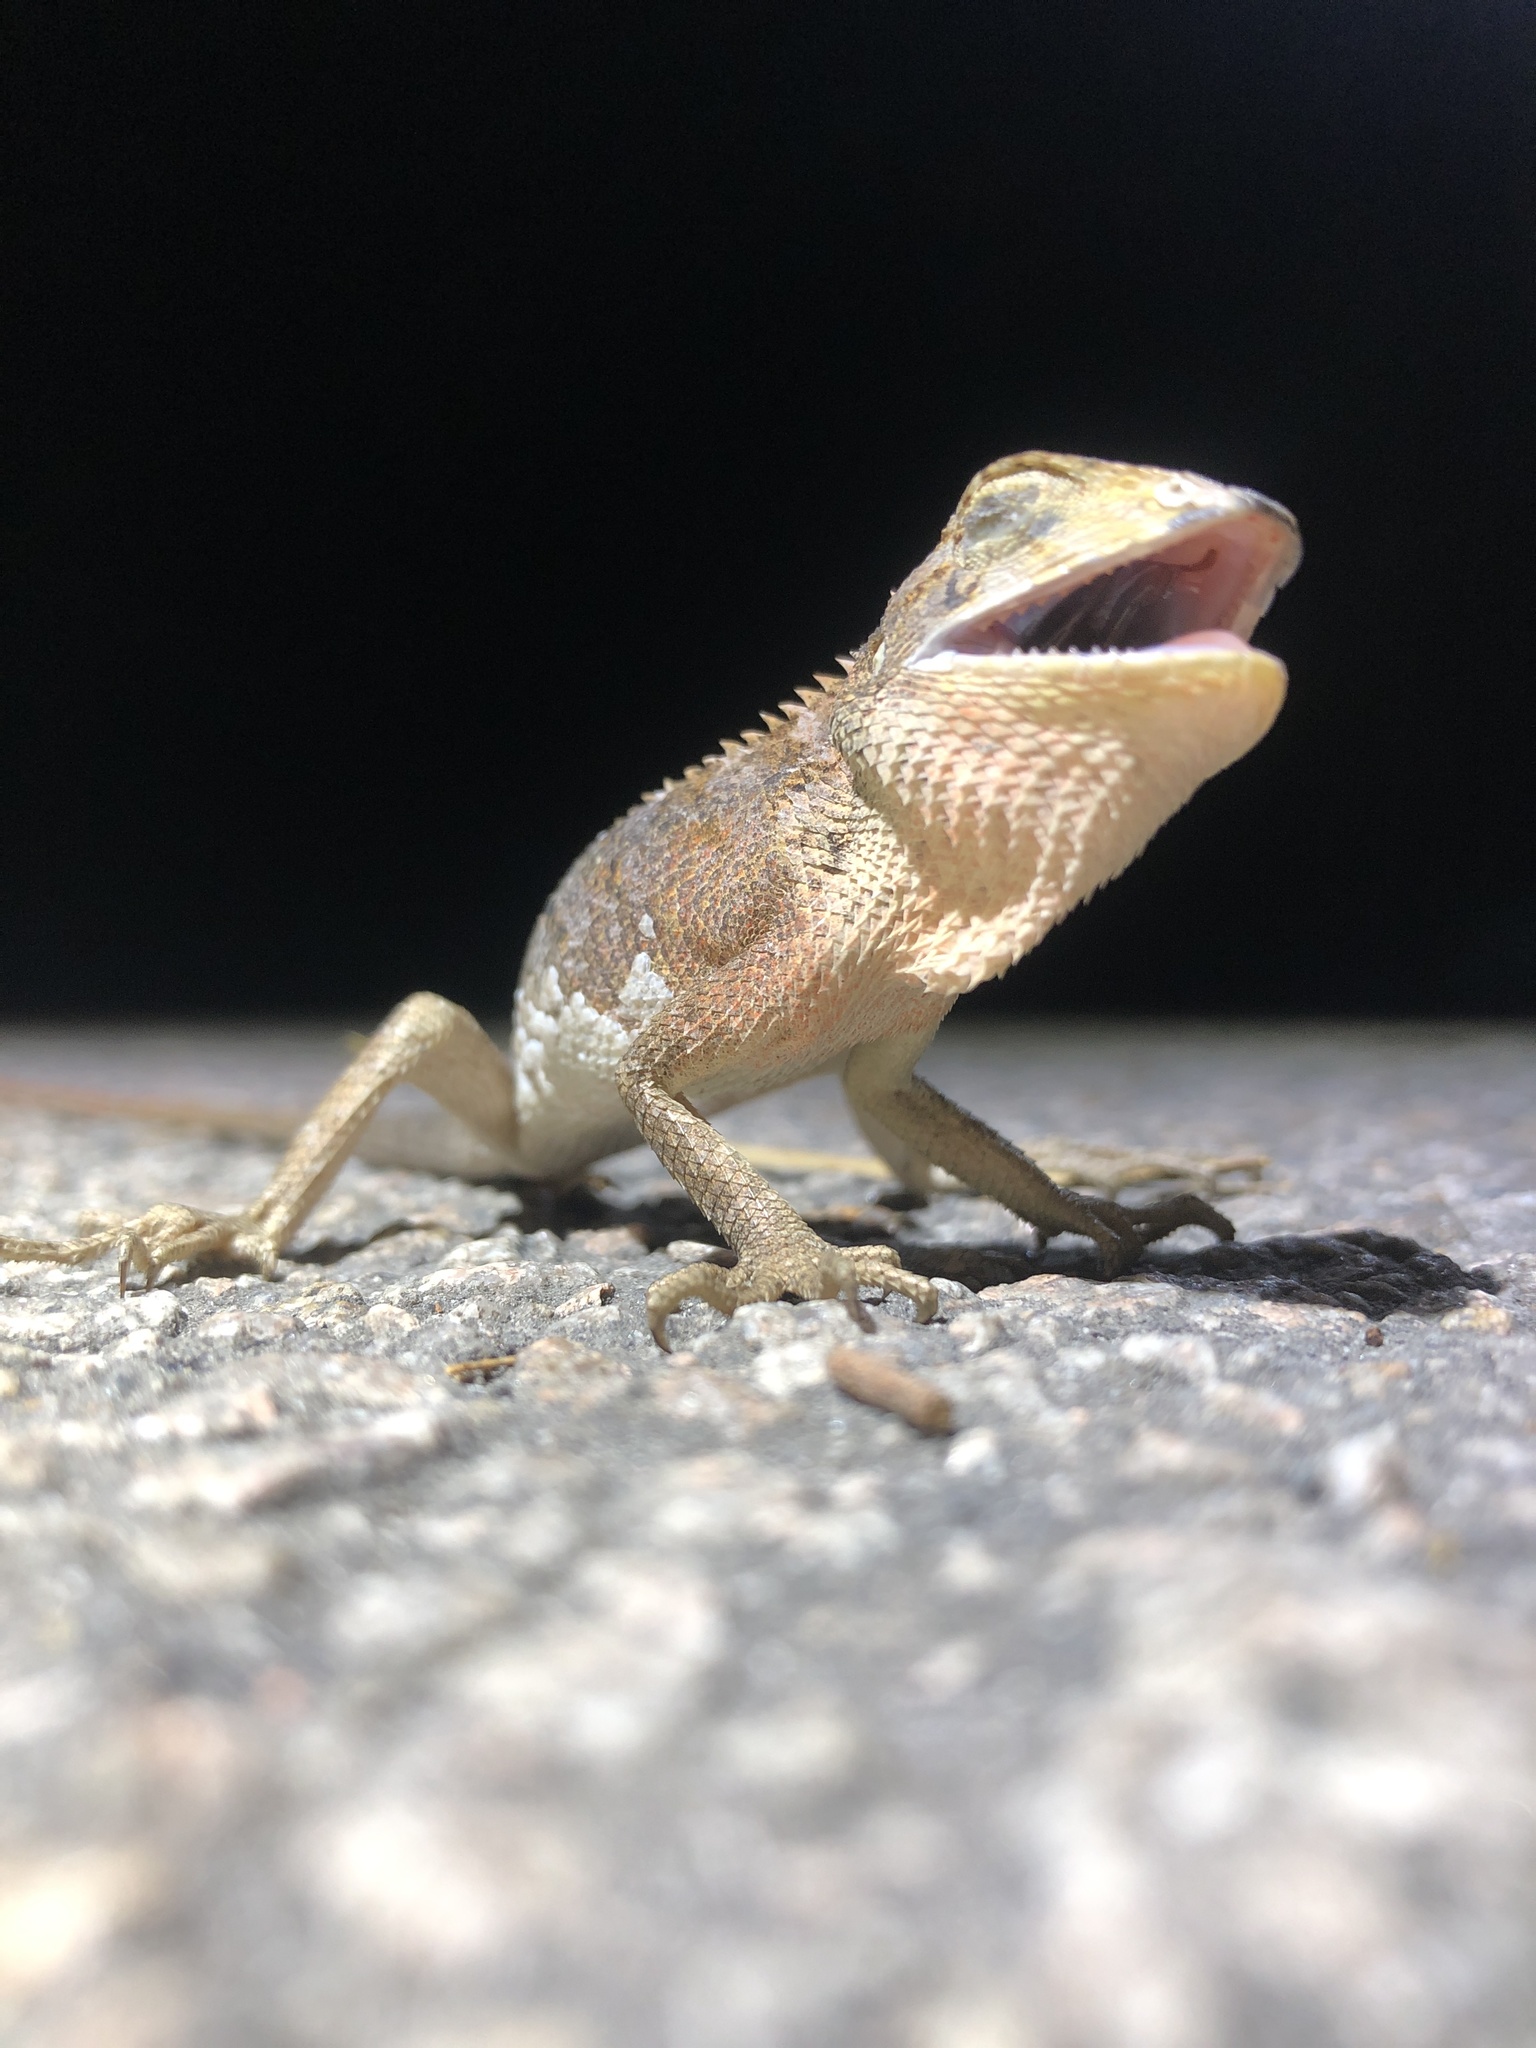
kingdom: Animalia
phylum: Chordata
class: Squamata
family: Agamidae
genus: Calotes
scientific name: Calotes versicolor
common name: Oriental garden lizard
